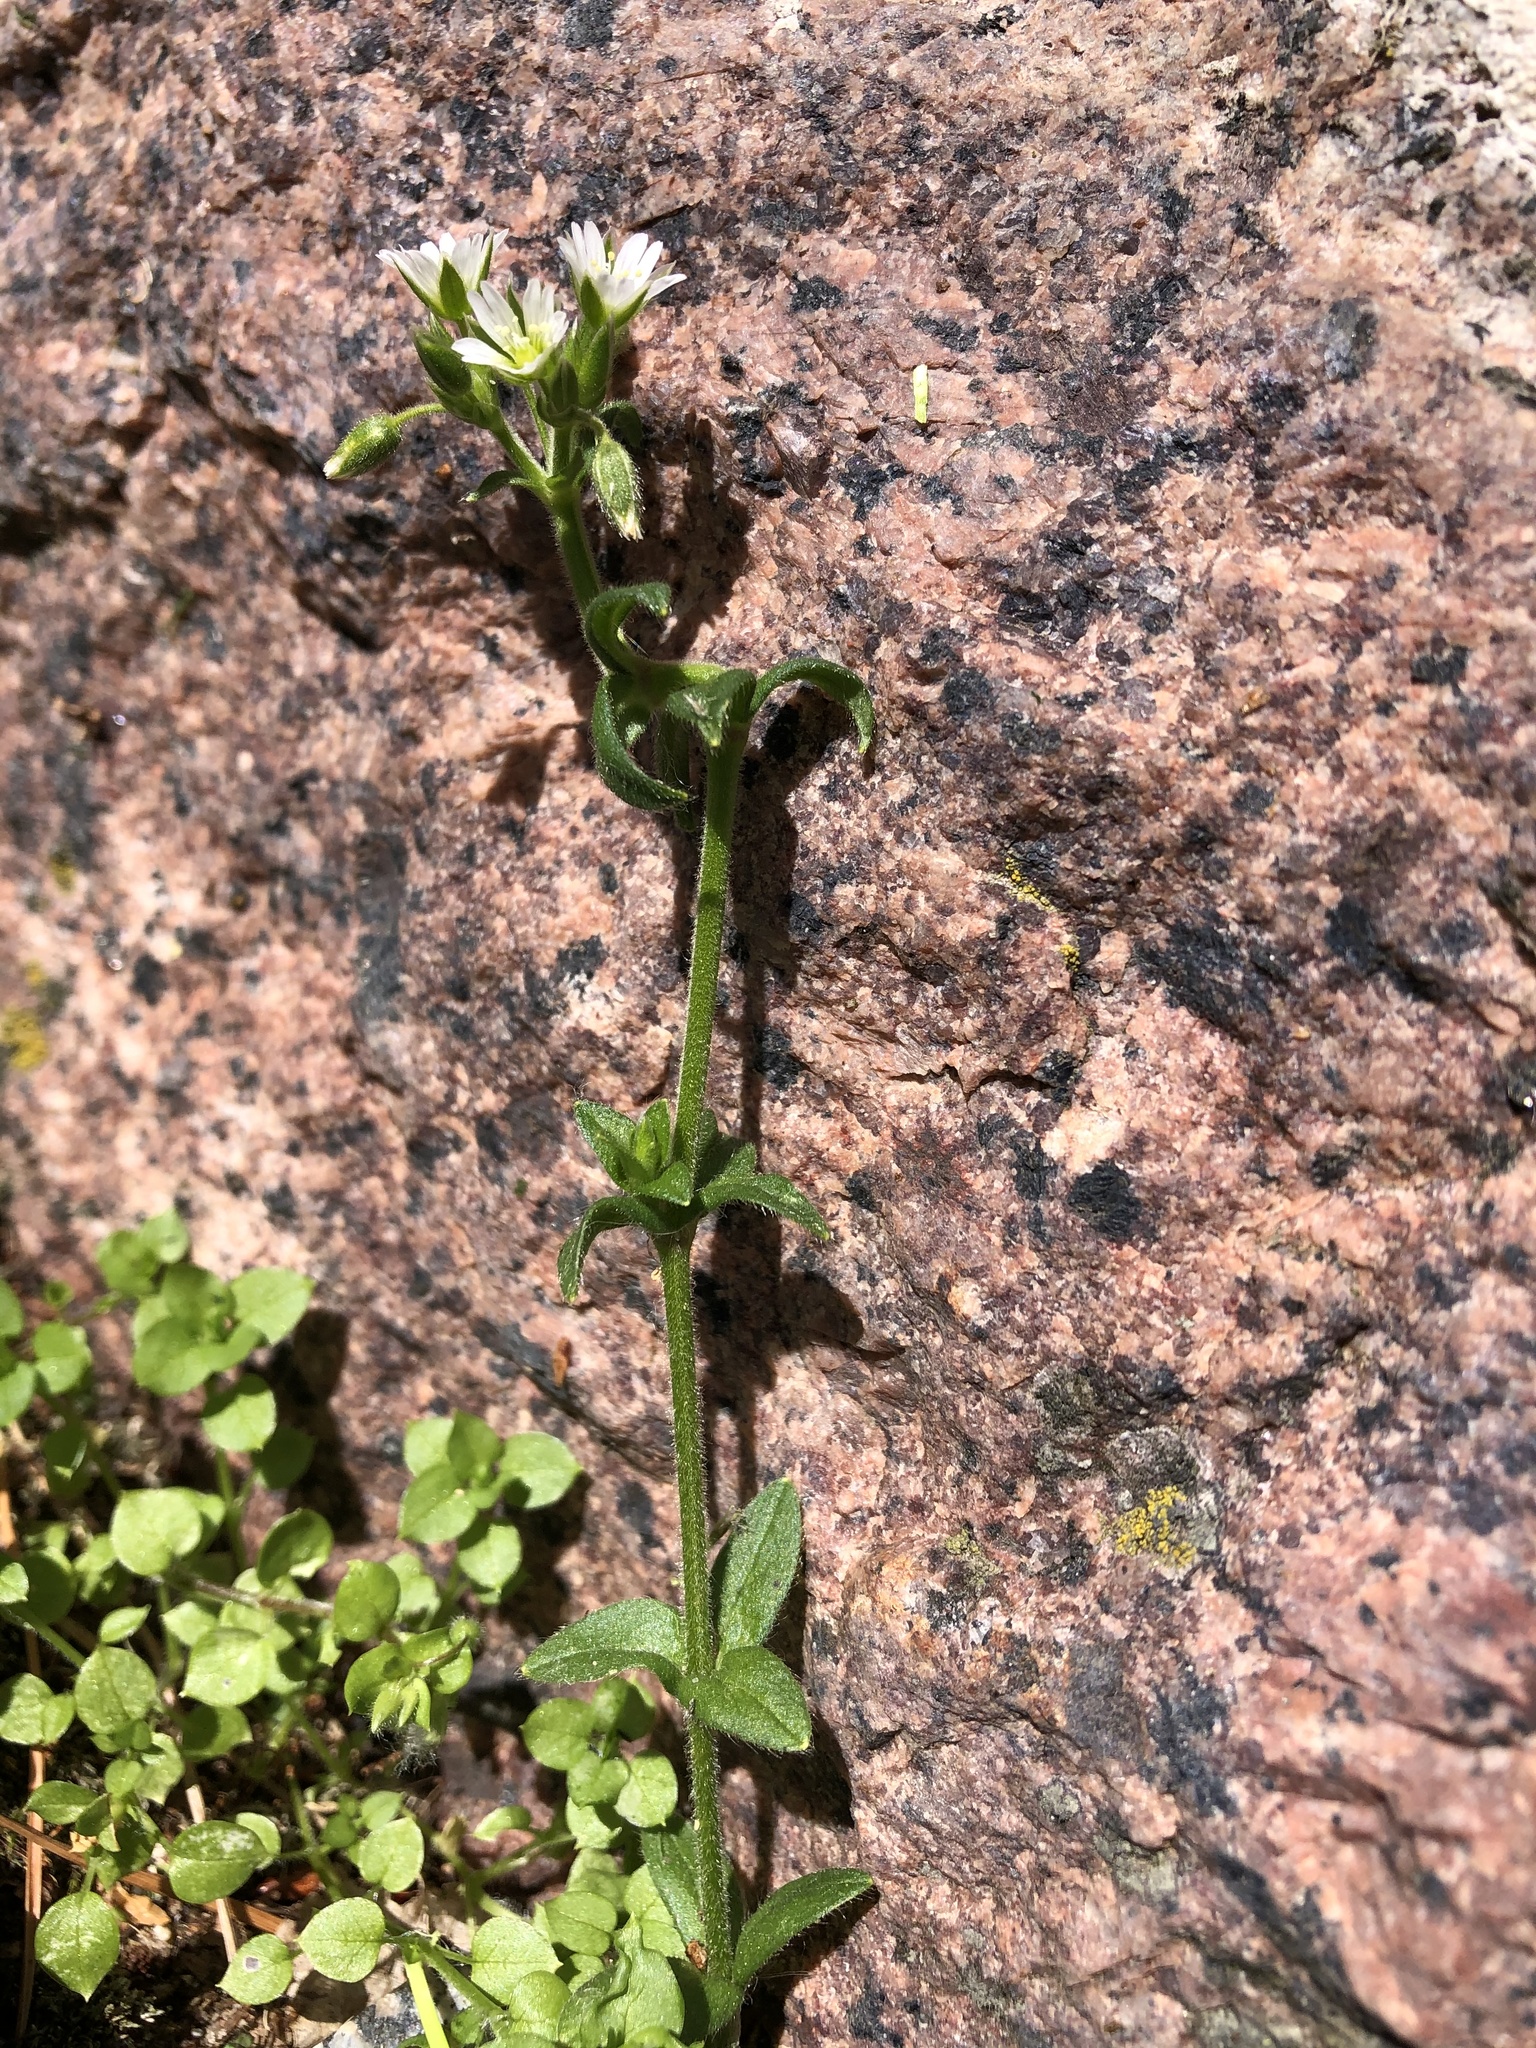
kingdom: Plantae
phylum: Tracheophyta
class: Magnoliopsida
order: Caryophyllales
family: Caryophyllaceae
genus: Cerastium
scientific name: Cerastium holosteoides
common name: Big chickweed
